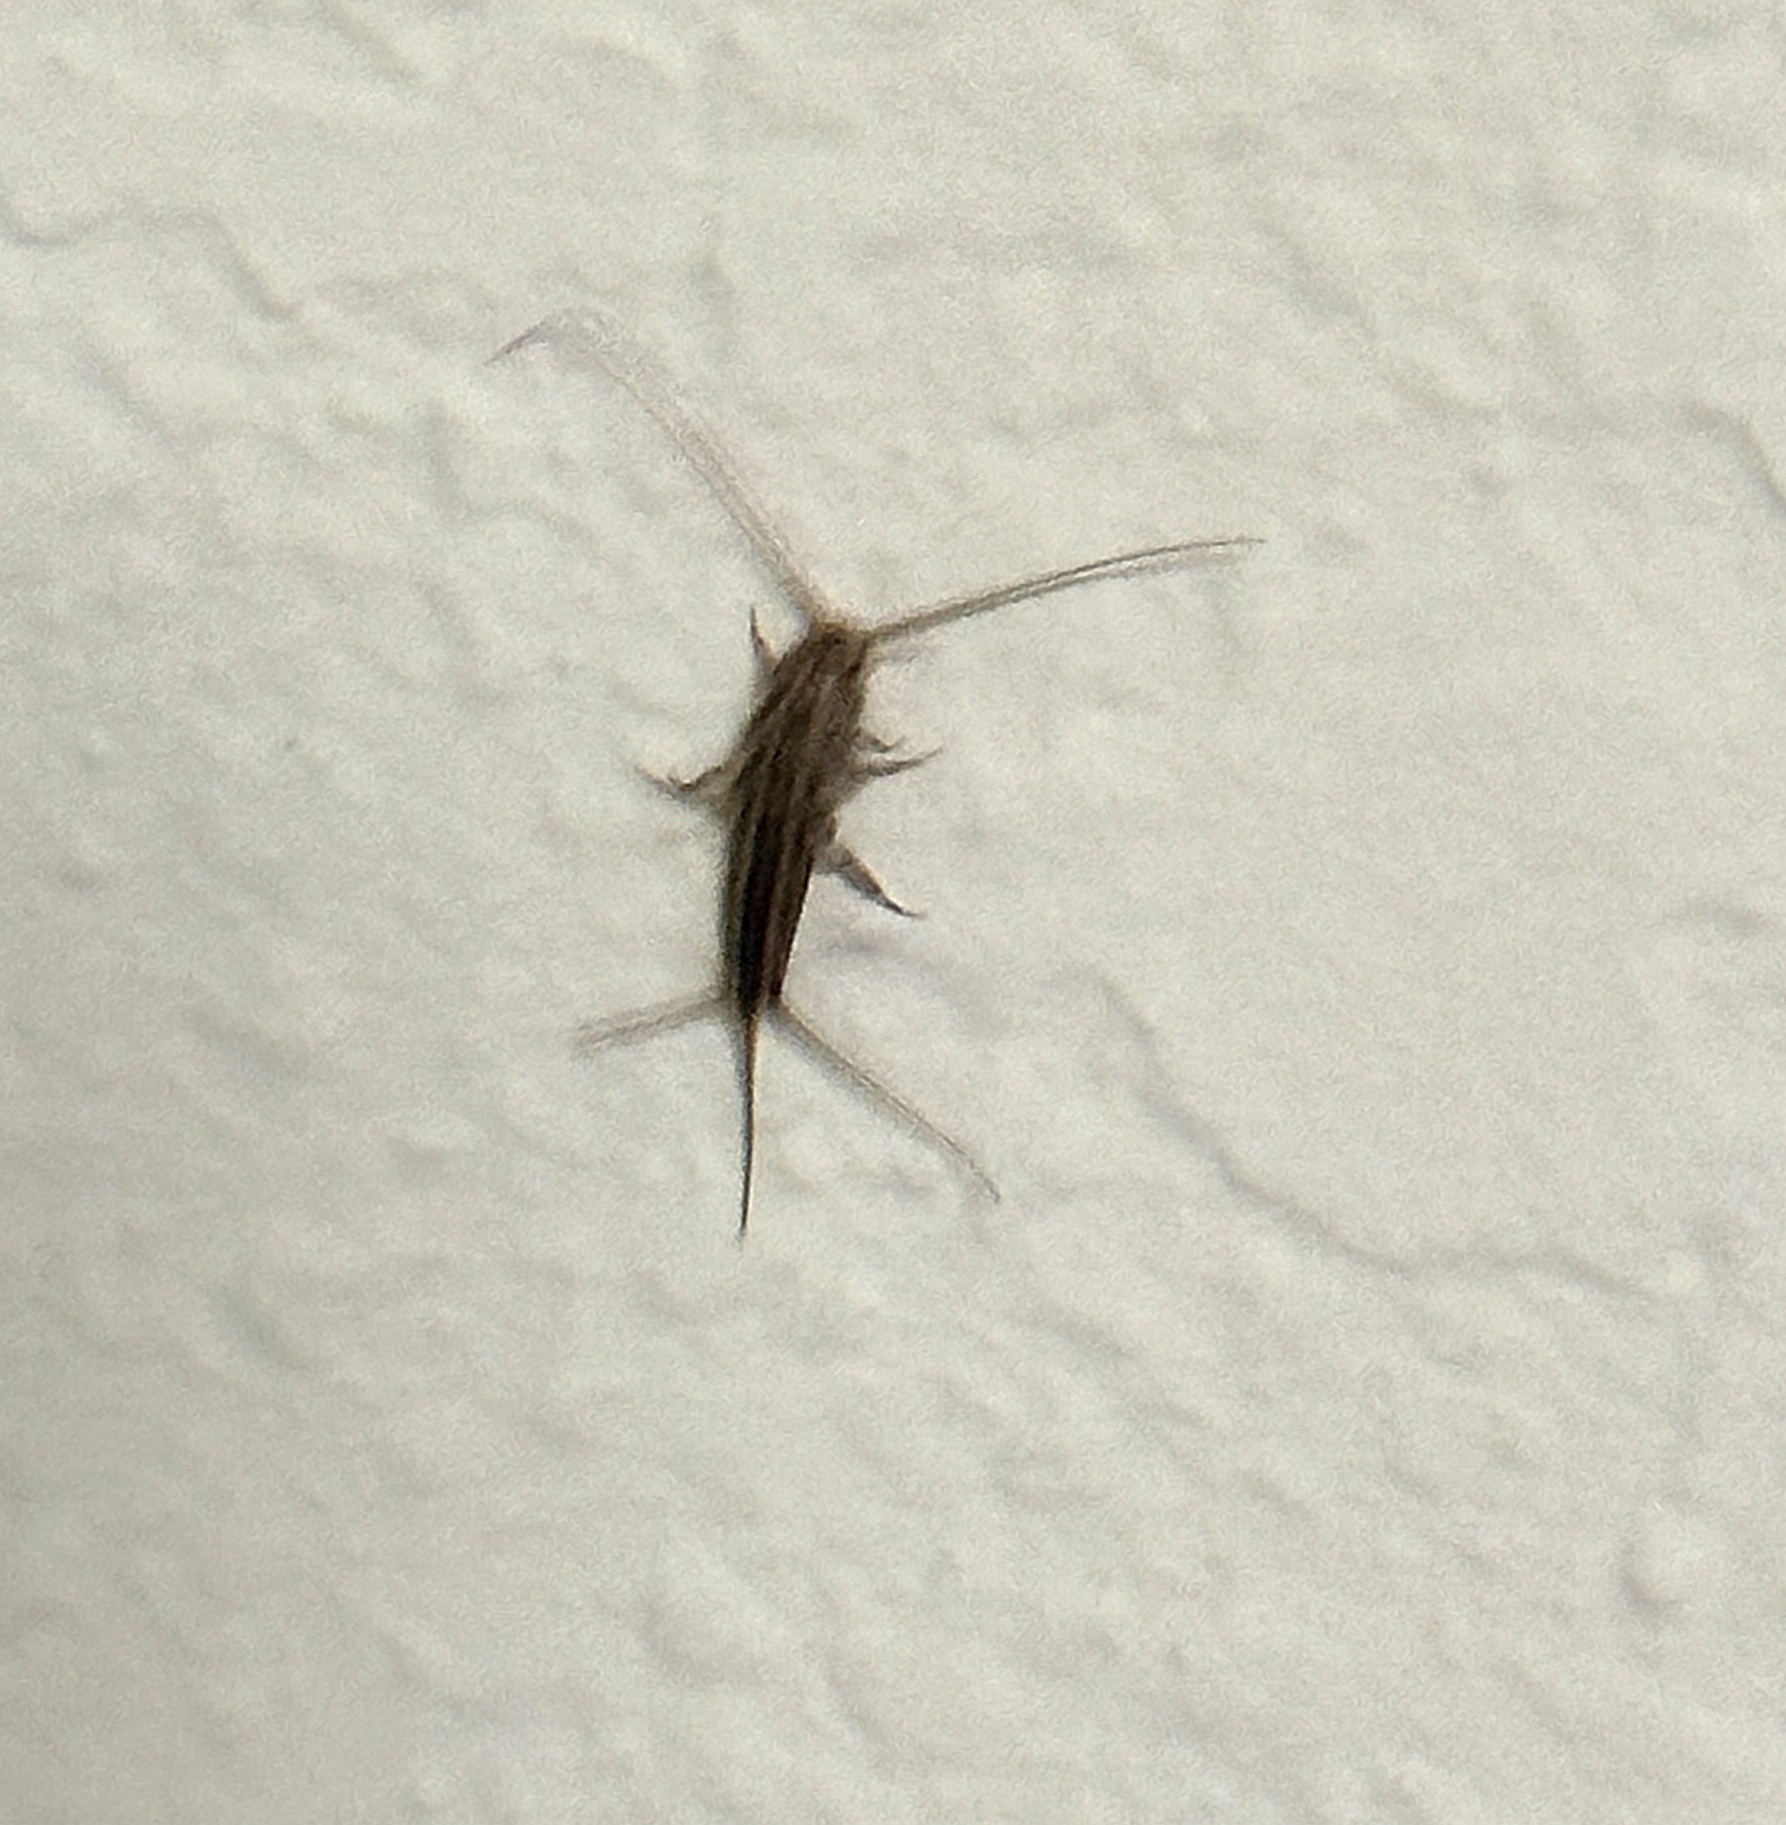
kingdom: Animalia
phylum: Arthropoda
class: Insecta
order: Zygentoma
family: Lepismatidae
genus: Ctenolepisma
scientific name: Ctenolepisma lineata
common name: Four-lined silverfish
